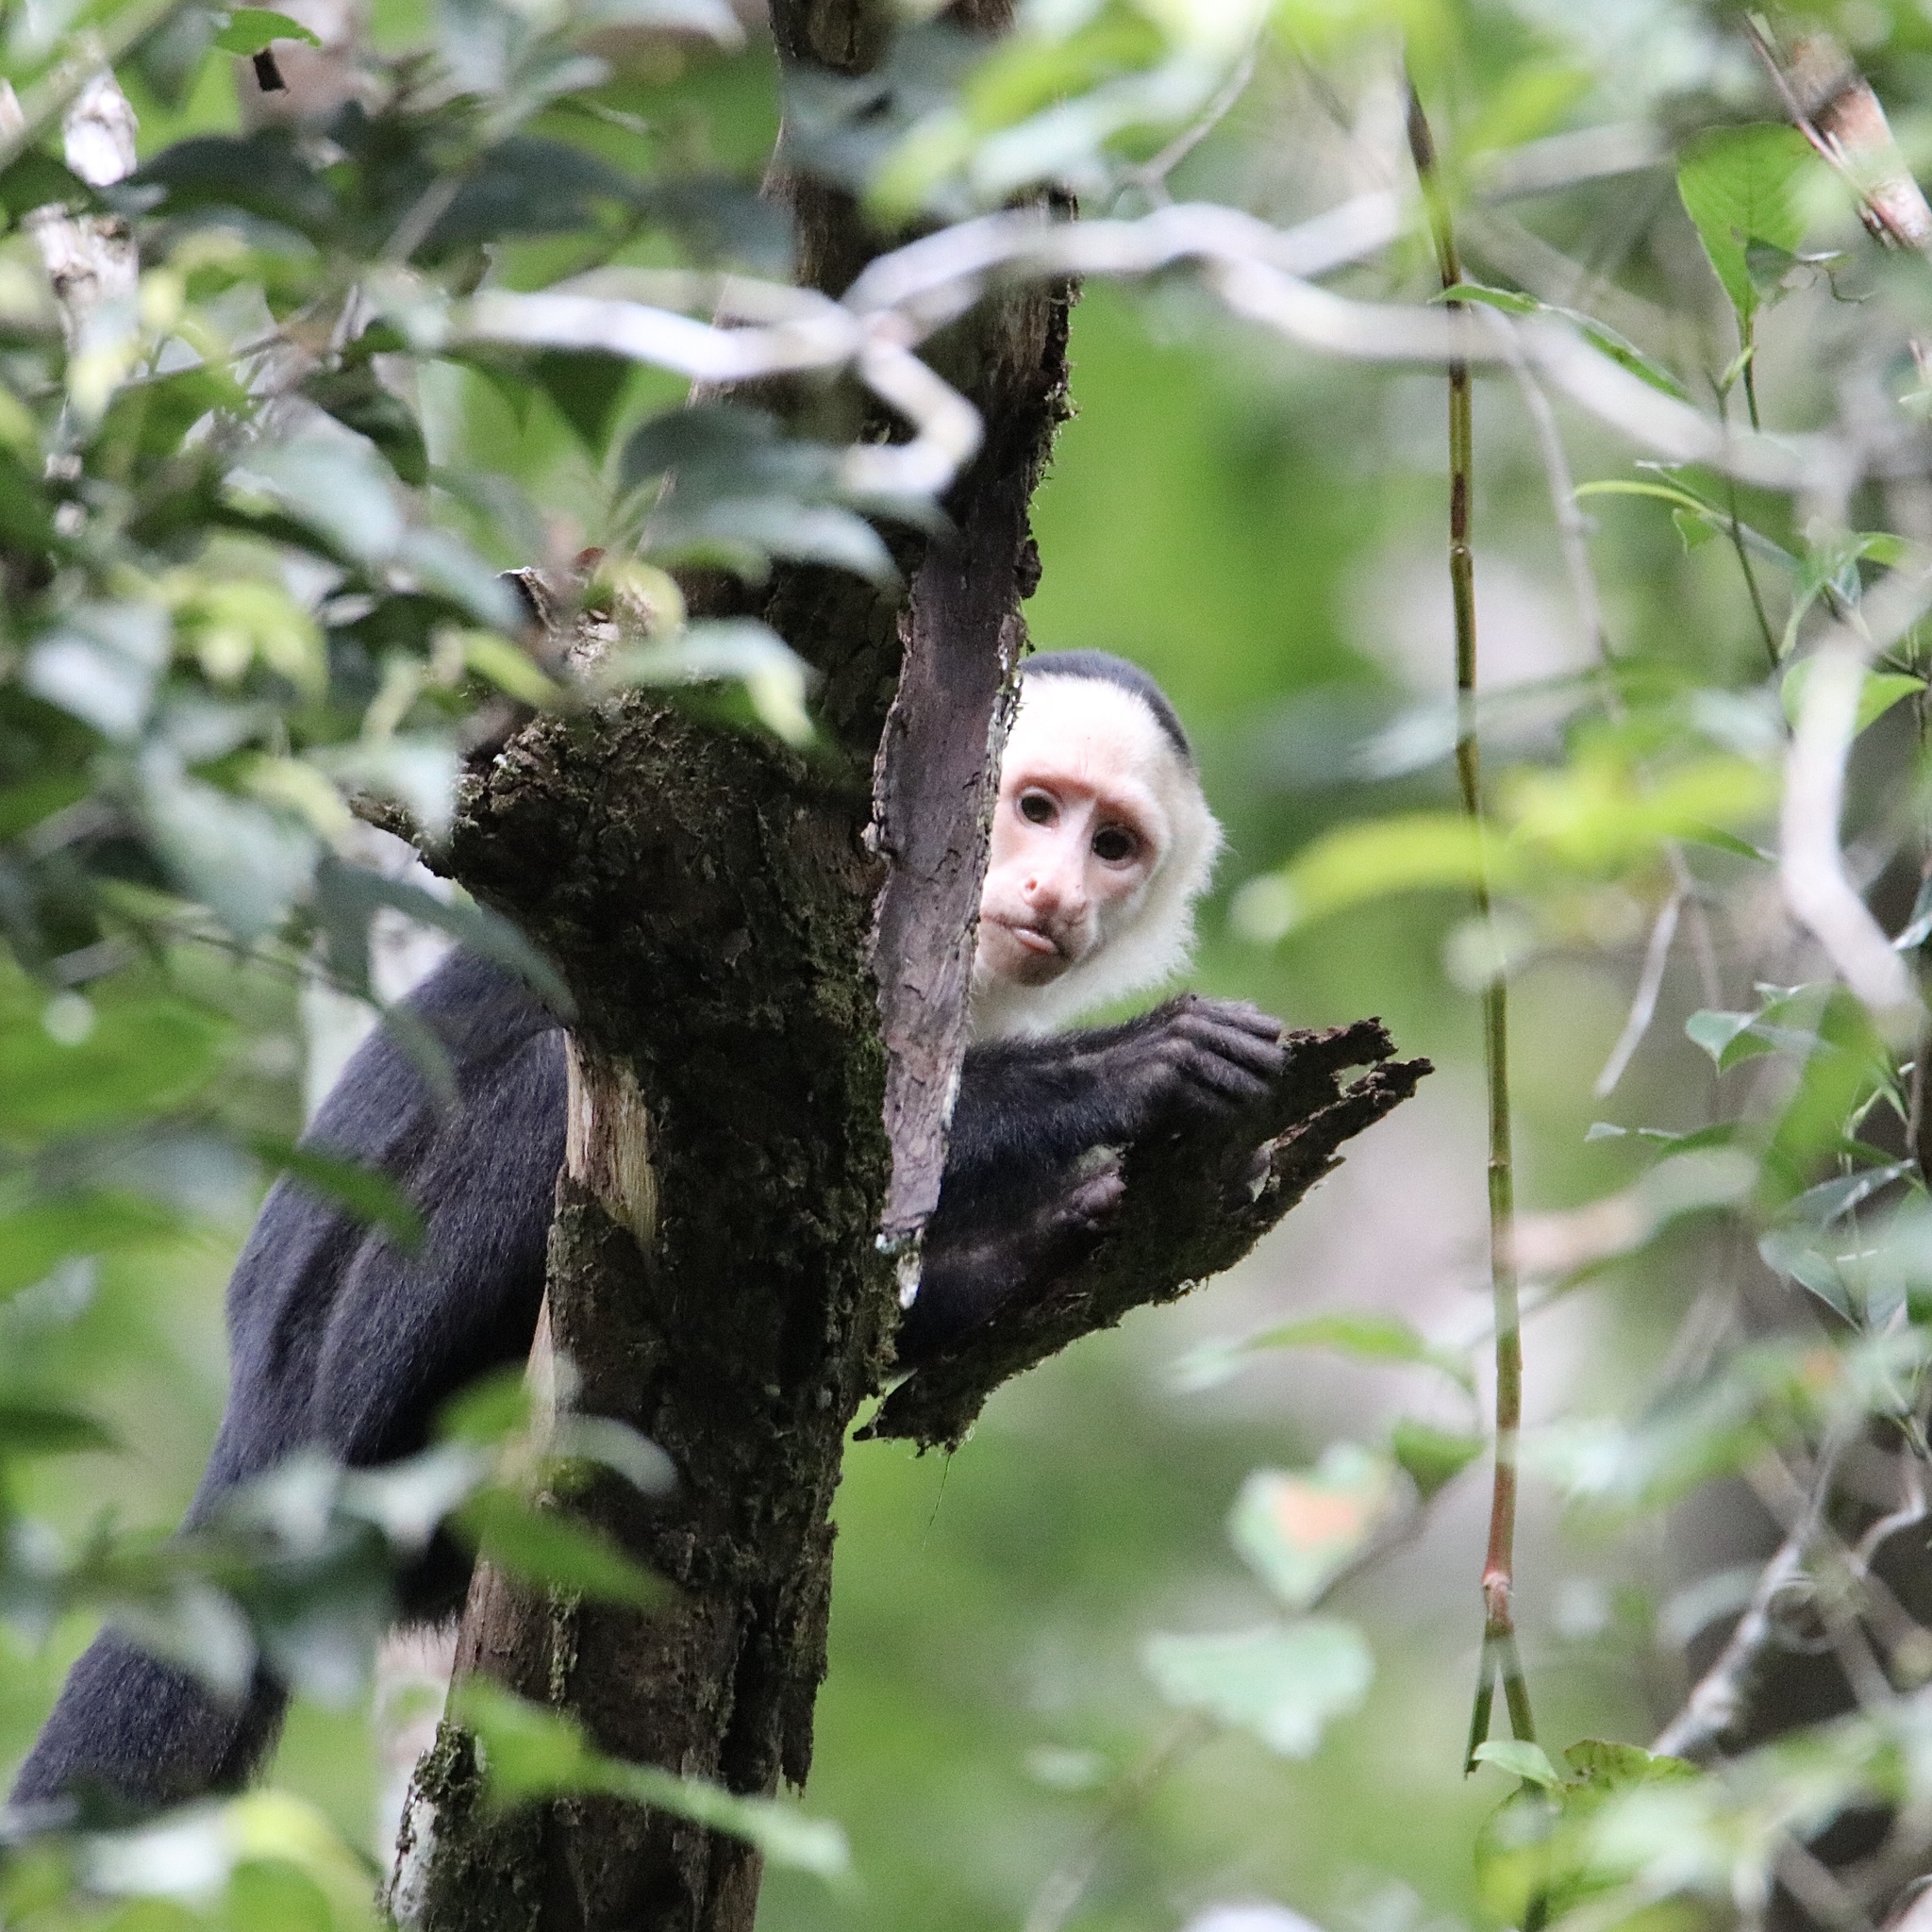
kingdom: Animalia
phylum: Chordata
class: Mammalia
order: Primates
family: Cebidae
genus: Cebus
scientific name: Cebus imitator
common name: Panamanian white-faced capuchin
